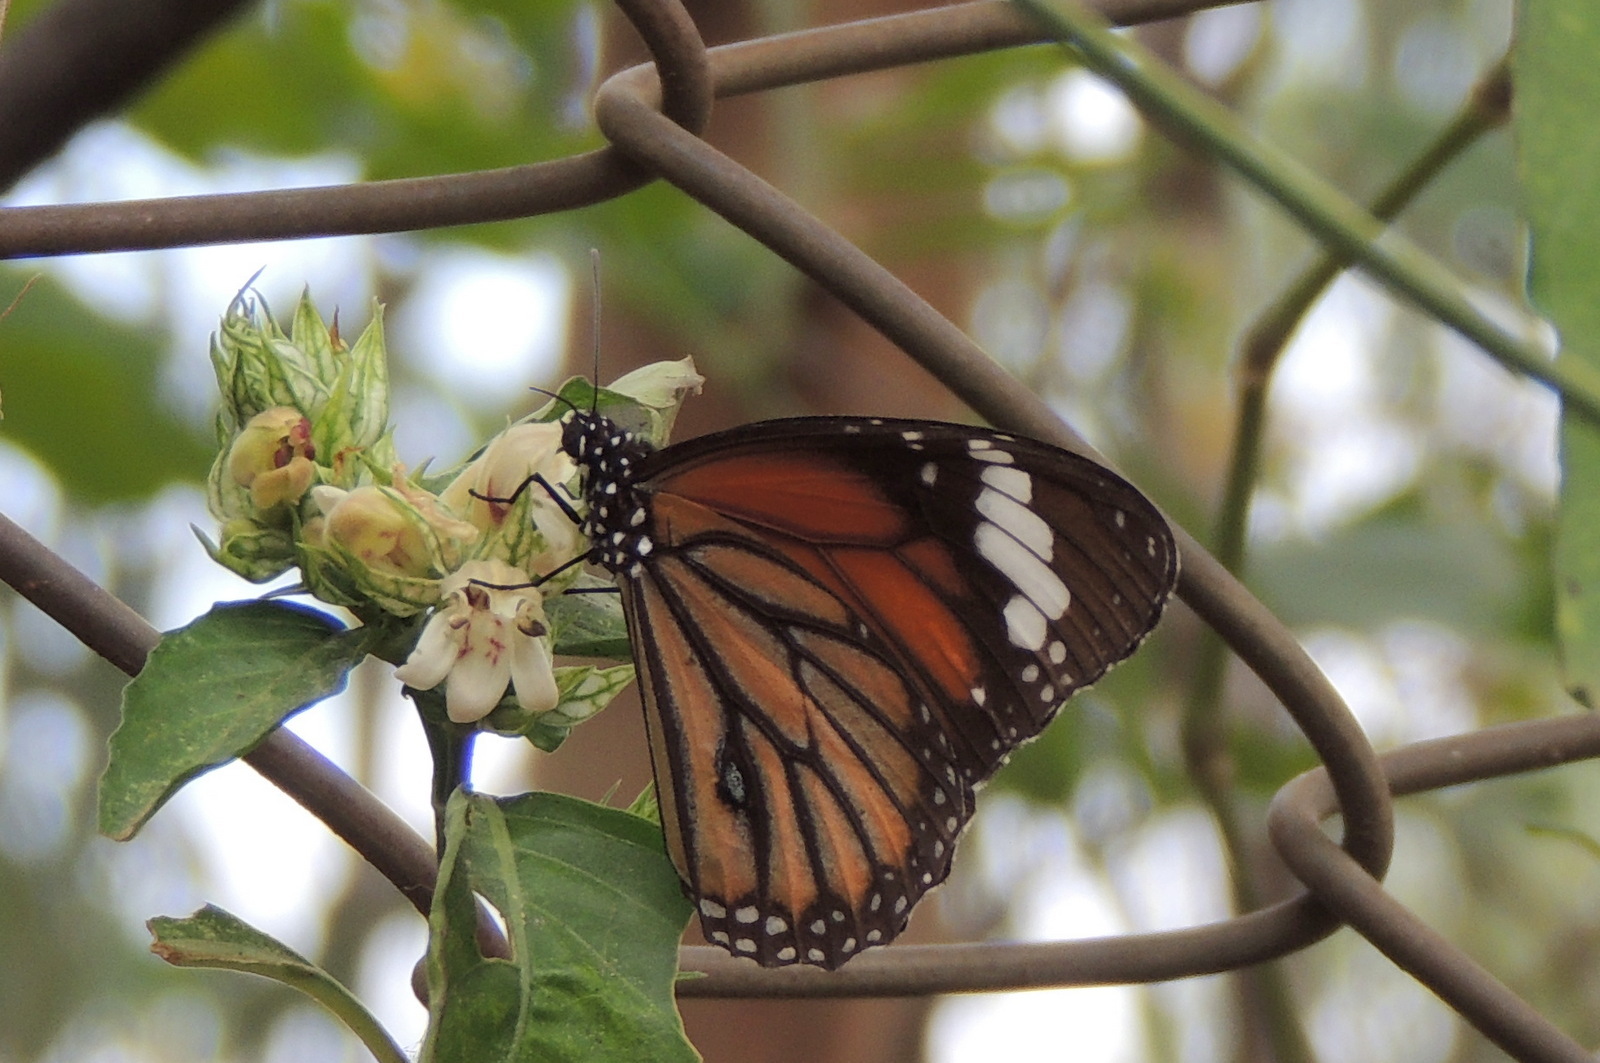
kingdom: Animalia
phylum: Arthropoda
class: Insecta
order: Lepidoptera
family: Nymphalidae
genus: Danaus
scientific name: Danaus genutia
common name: Common tiger butterfly
